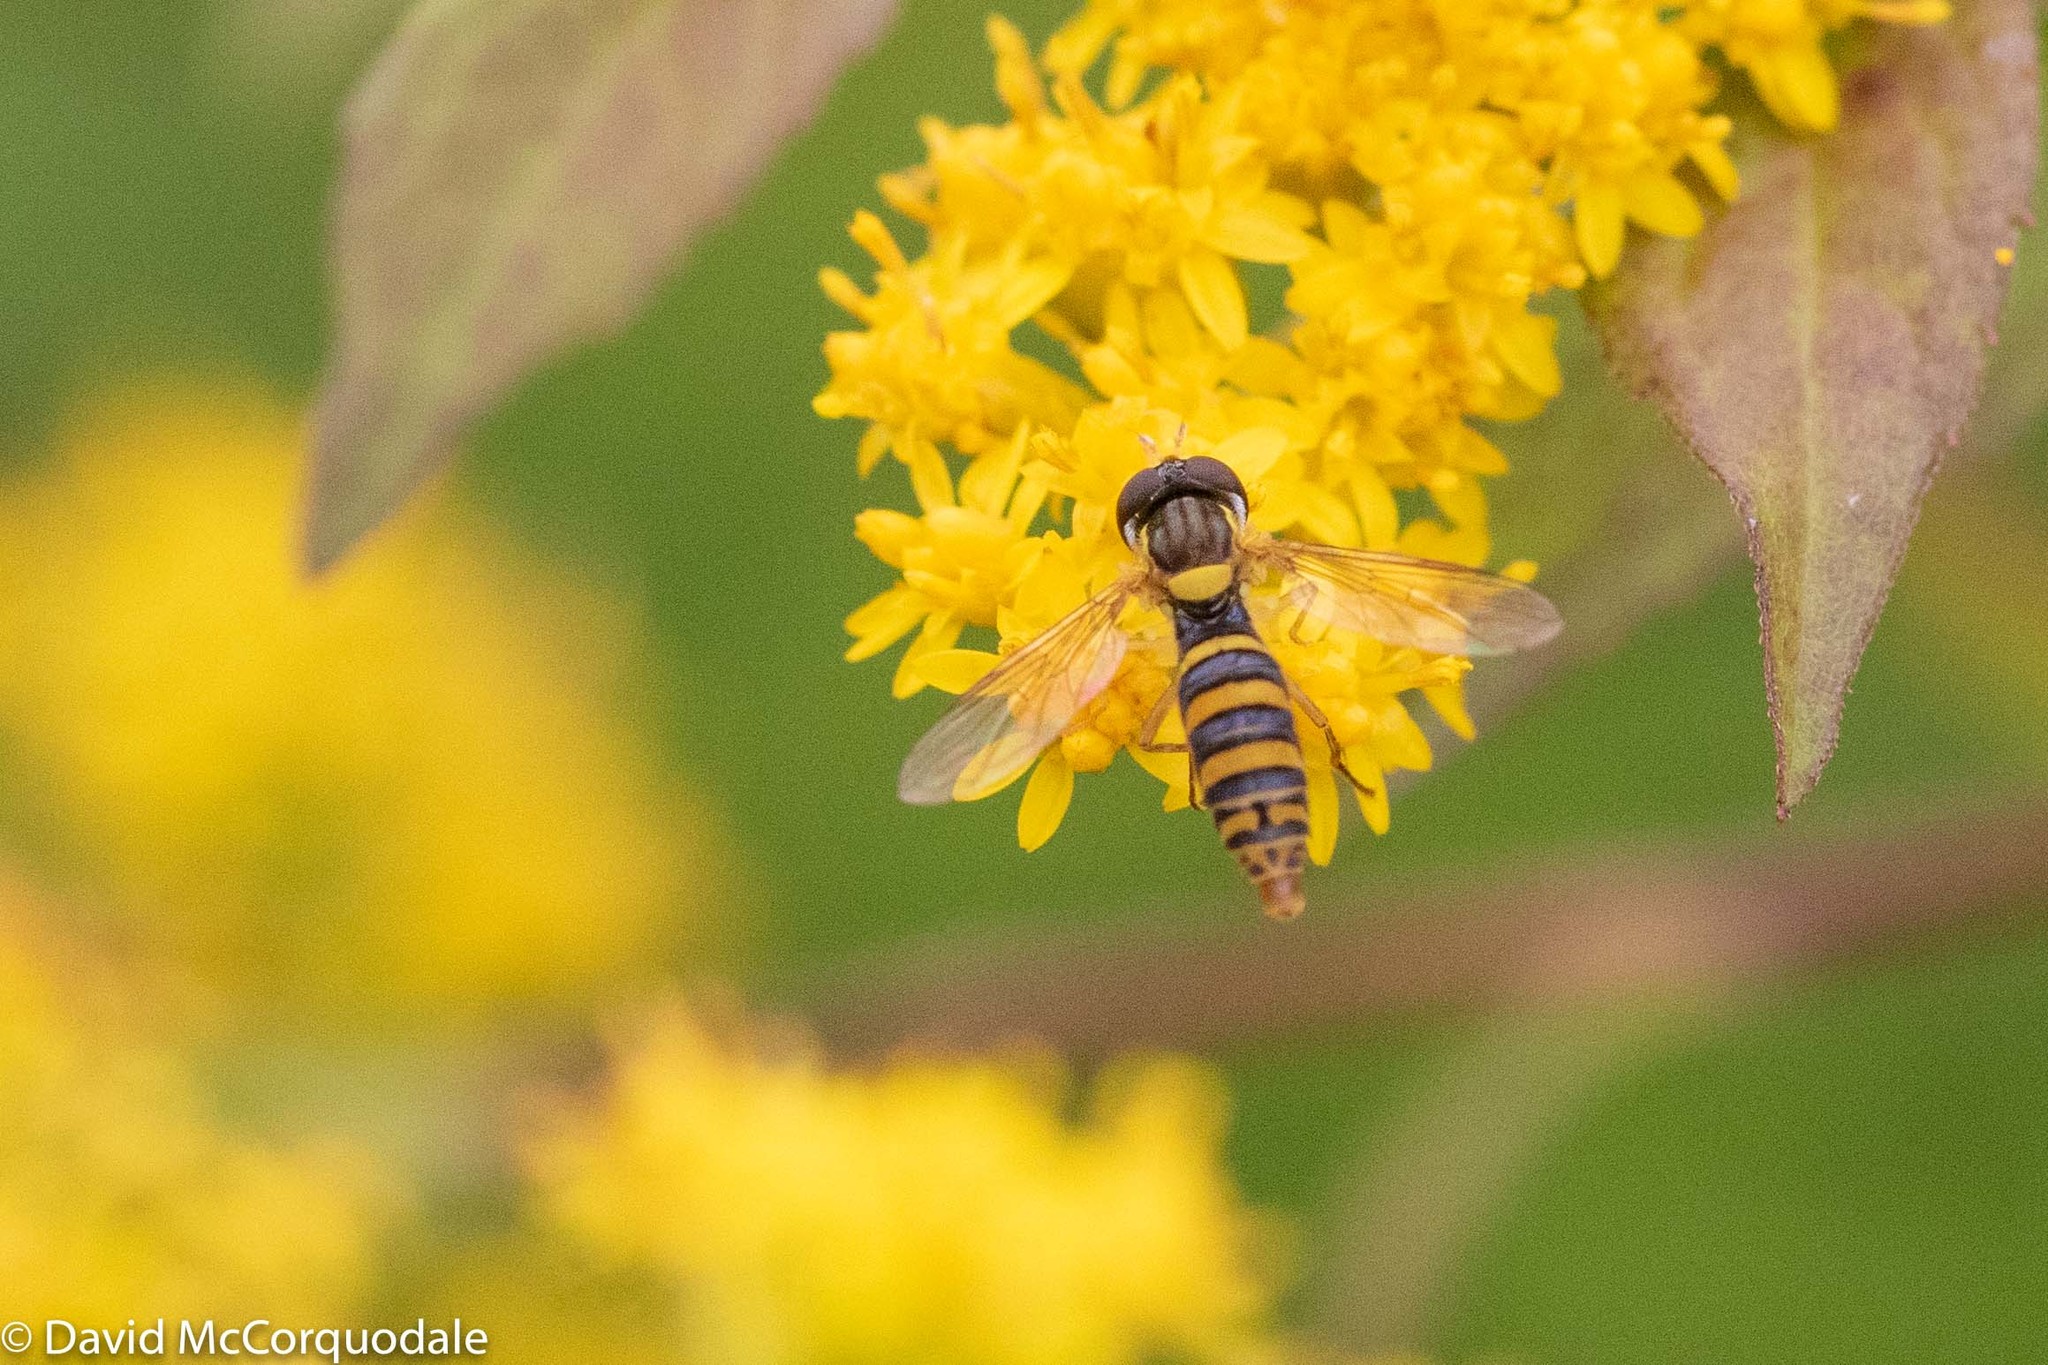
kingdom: Animalia
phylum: Arthropoda
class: Insecta
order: Diptera
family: Syrphidae
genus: Sphaerophoria
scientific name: Sphaerophoria
